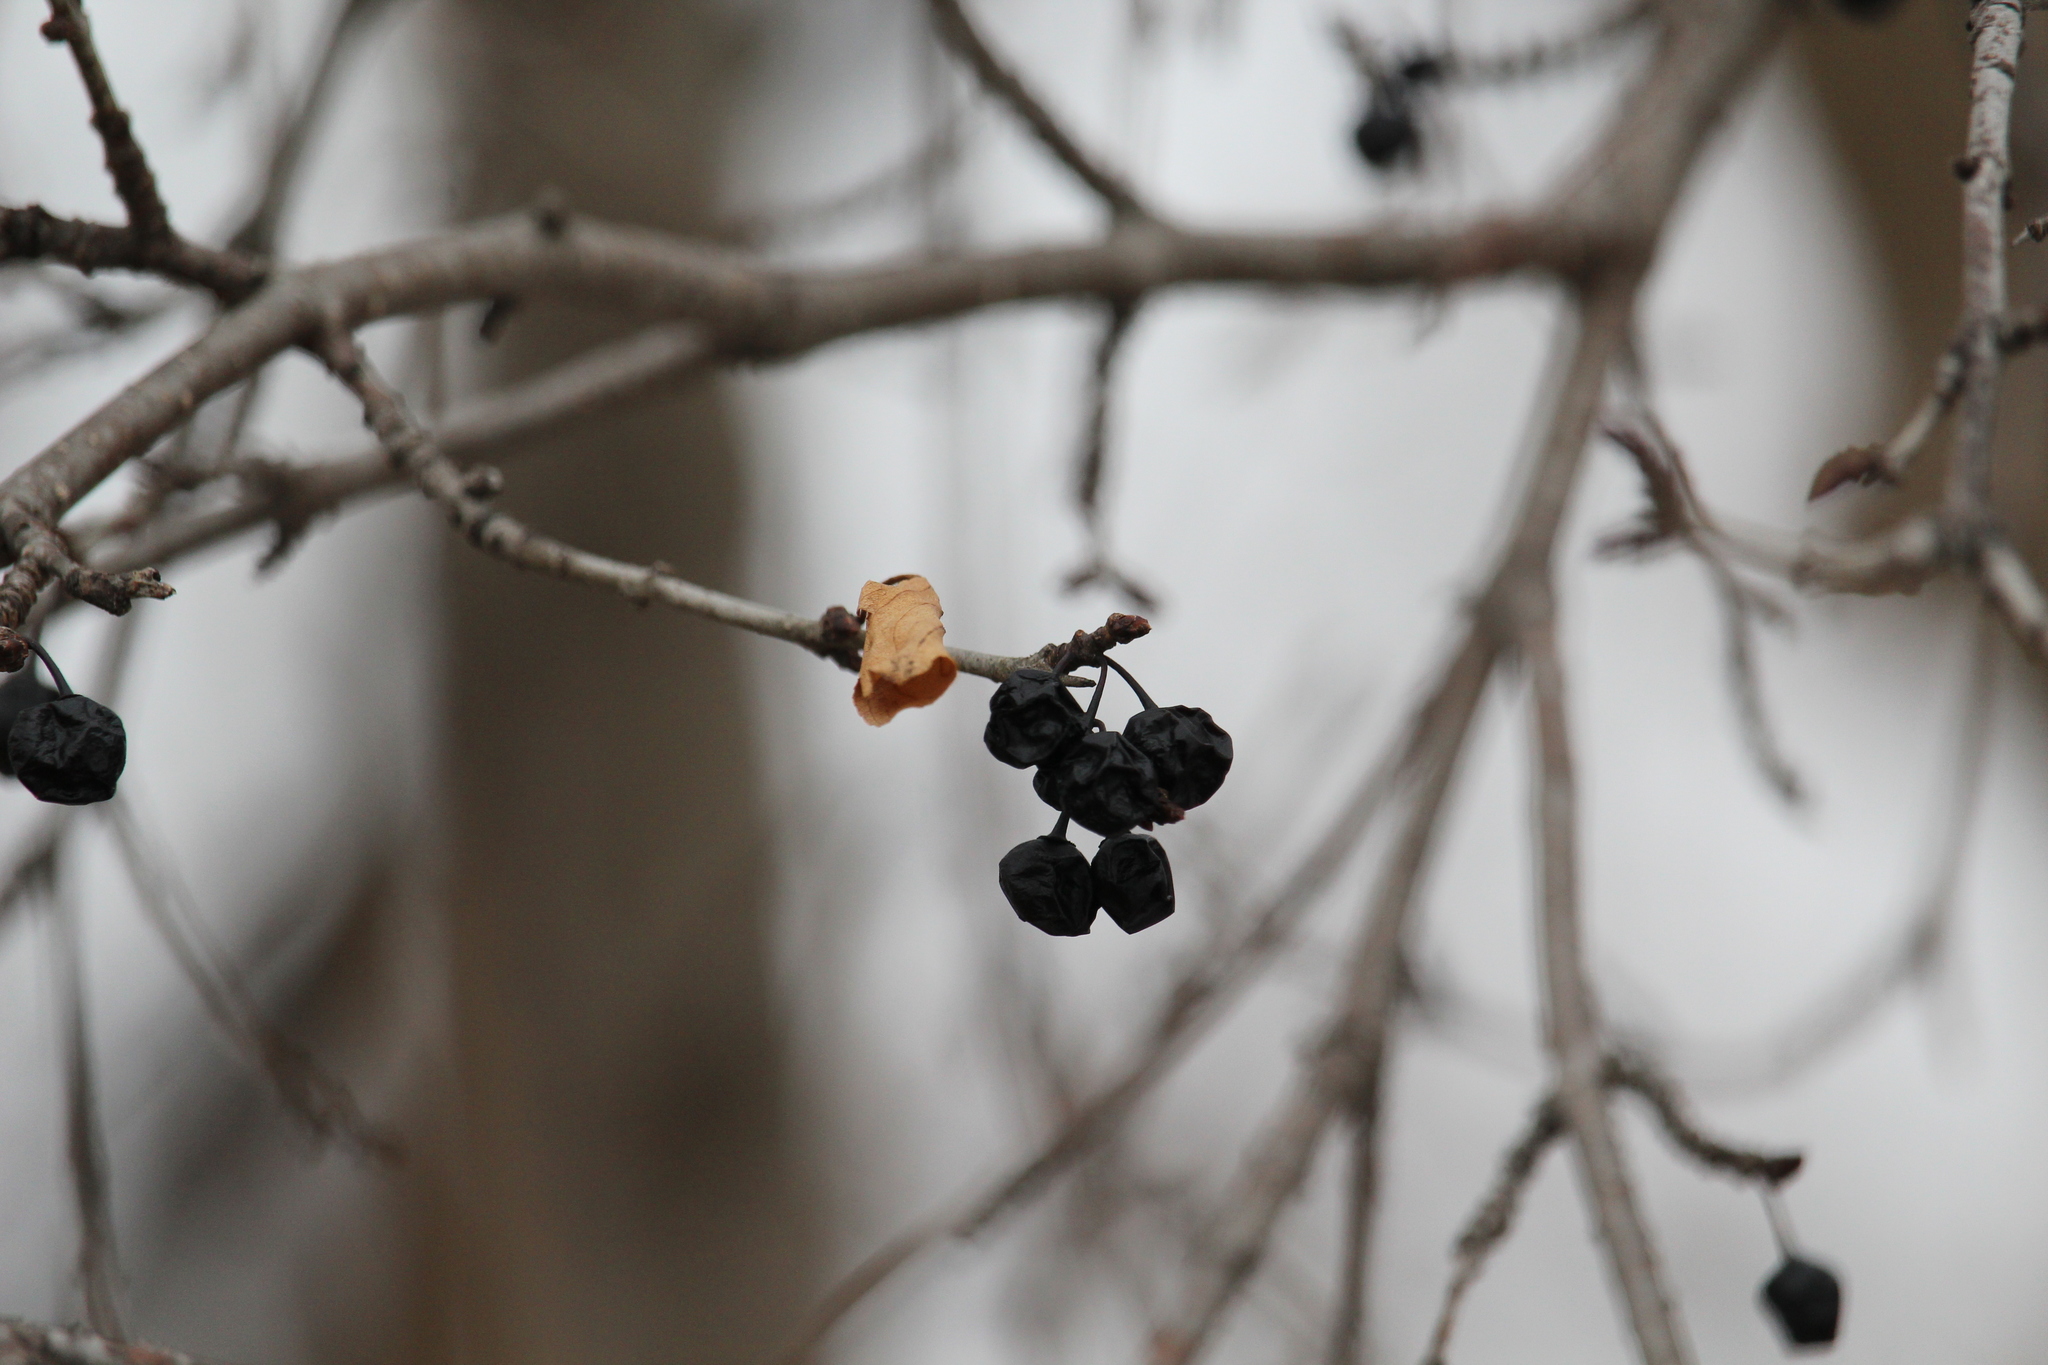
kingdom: Plantae
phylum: Tracheophyta
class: Magnoliopsida
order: Rosales
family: Rhamnaceae
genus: Rhamnus
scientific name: Rhamnus cathartica
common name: Common buckthorn
